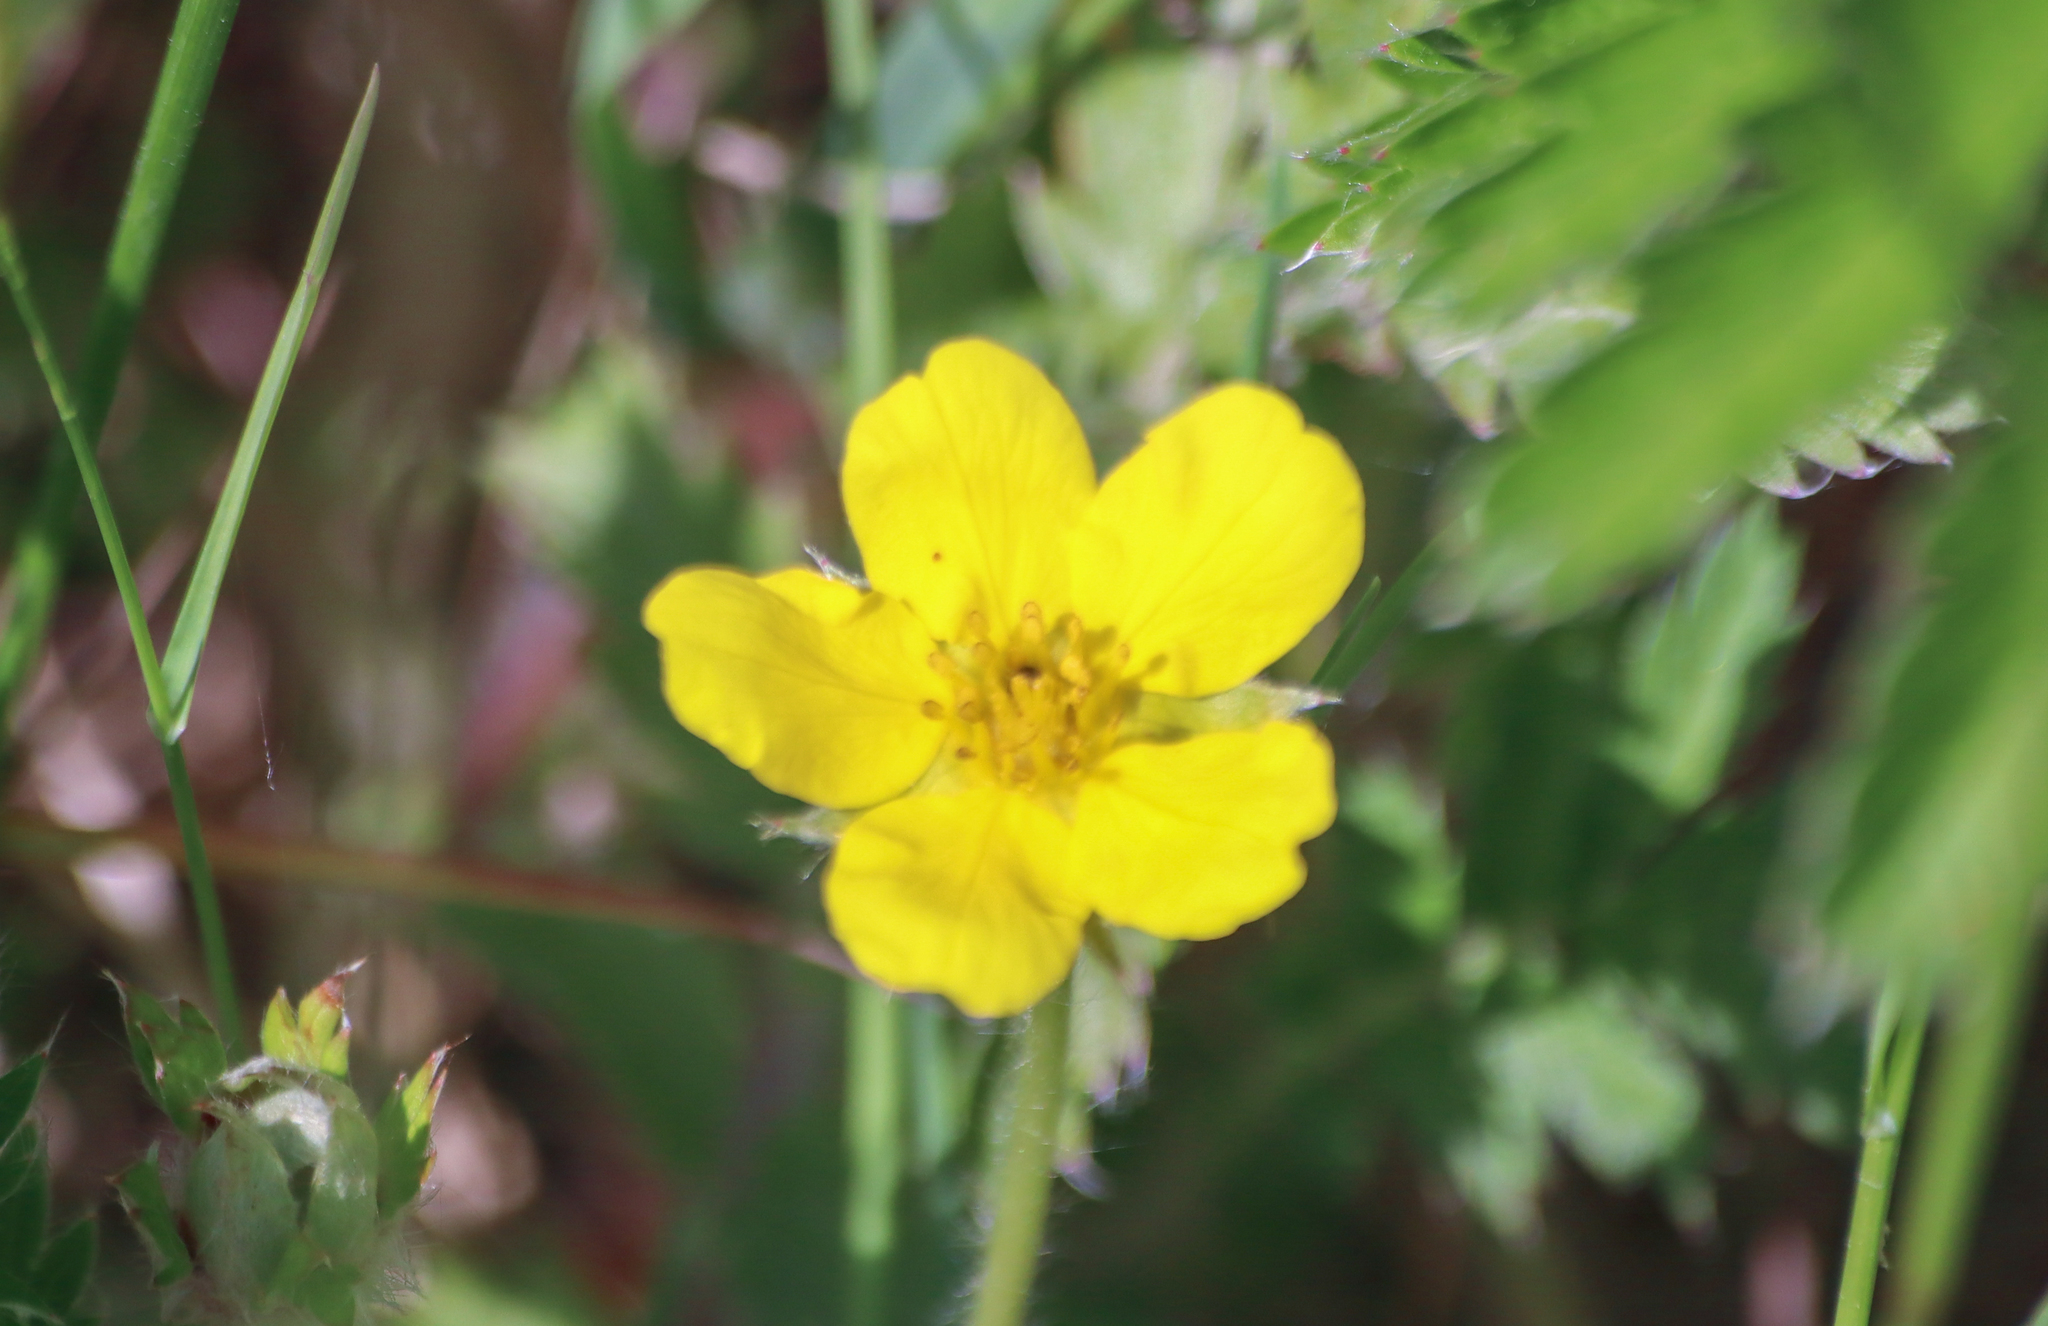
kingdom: Plantae
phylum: Tracheophyta
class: Magnoliopsida
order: Rosales
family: Rosaceae
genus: Argentina
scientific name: Argentina anserina
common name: Common silverweed
